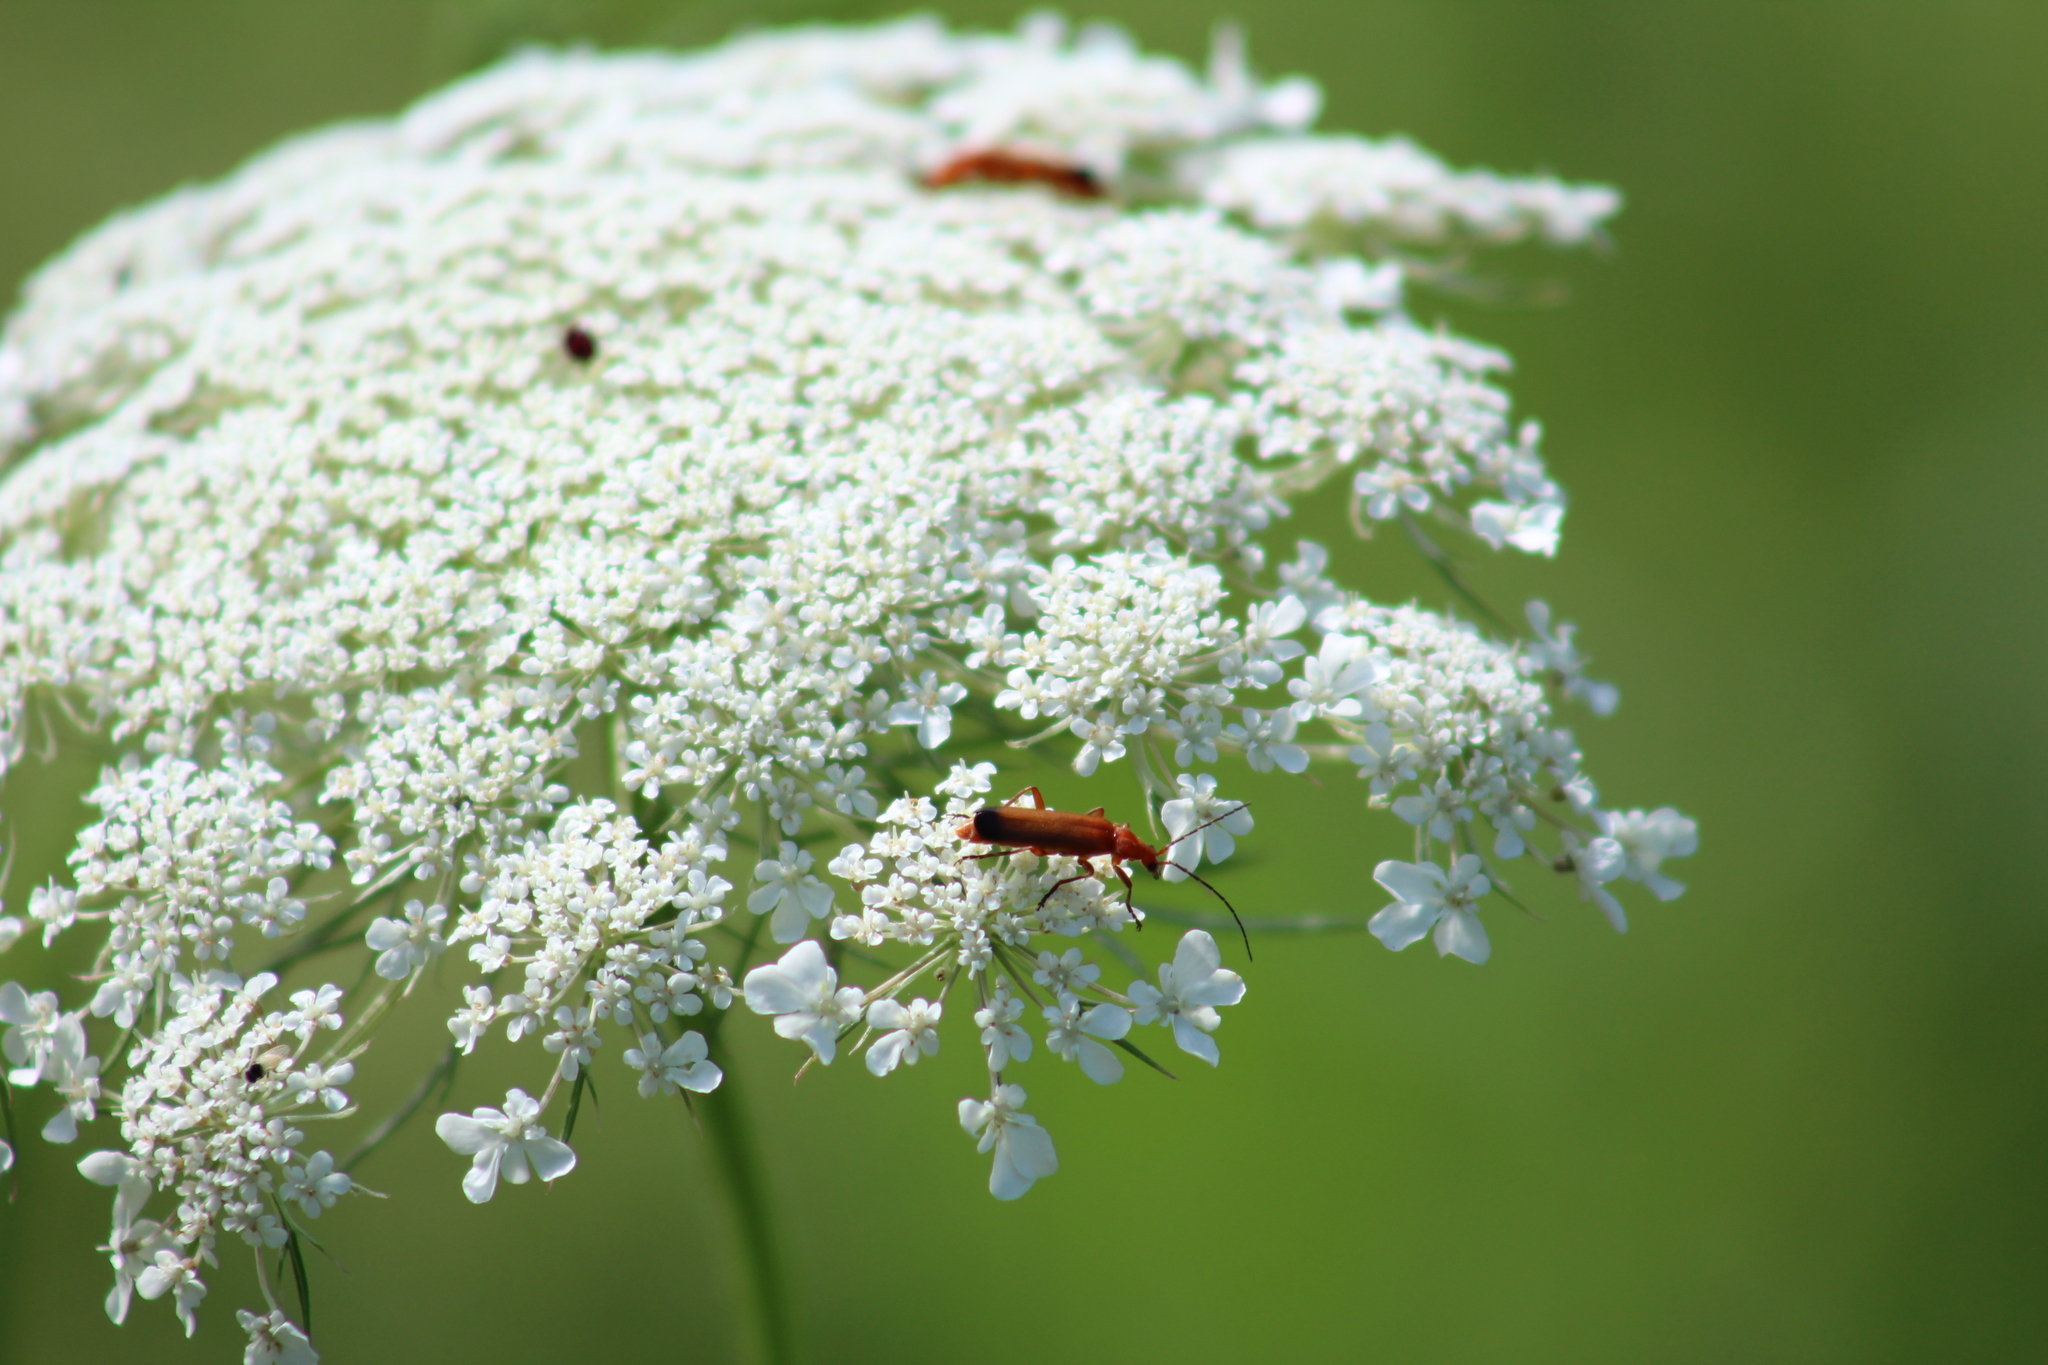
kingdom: Animalia
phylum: Arthropoda
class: Insecta
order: Coleoptera
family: Cantharidae
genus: Rhagonycha
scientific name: Rhagonycha fulva
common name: Common red soldier beetle
